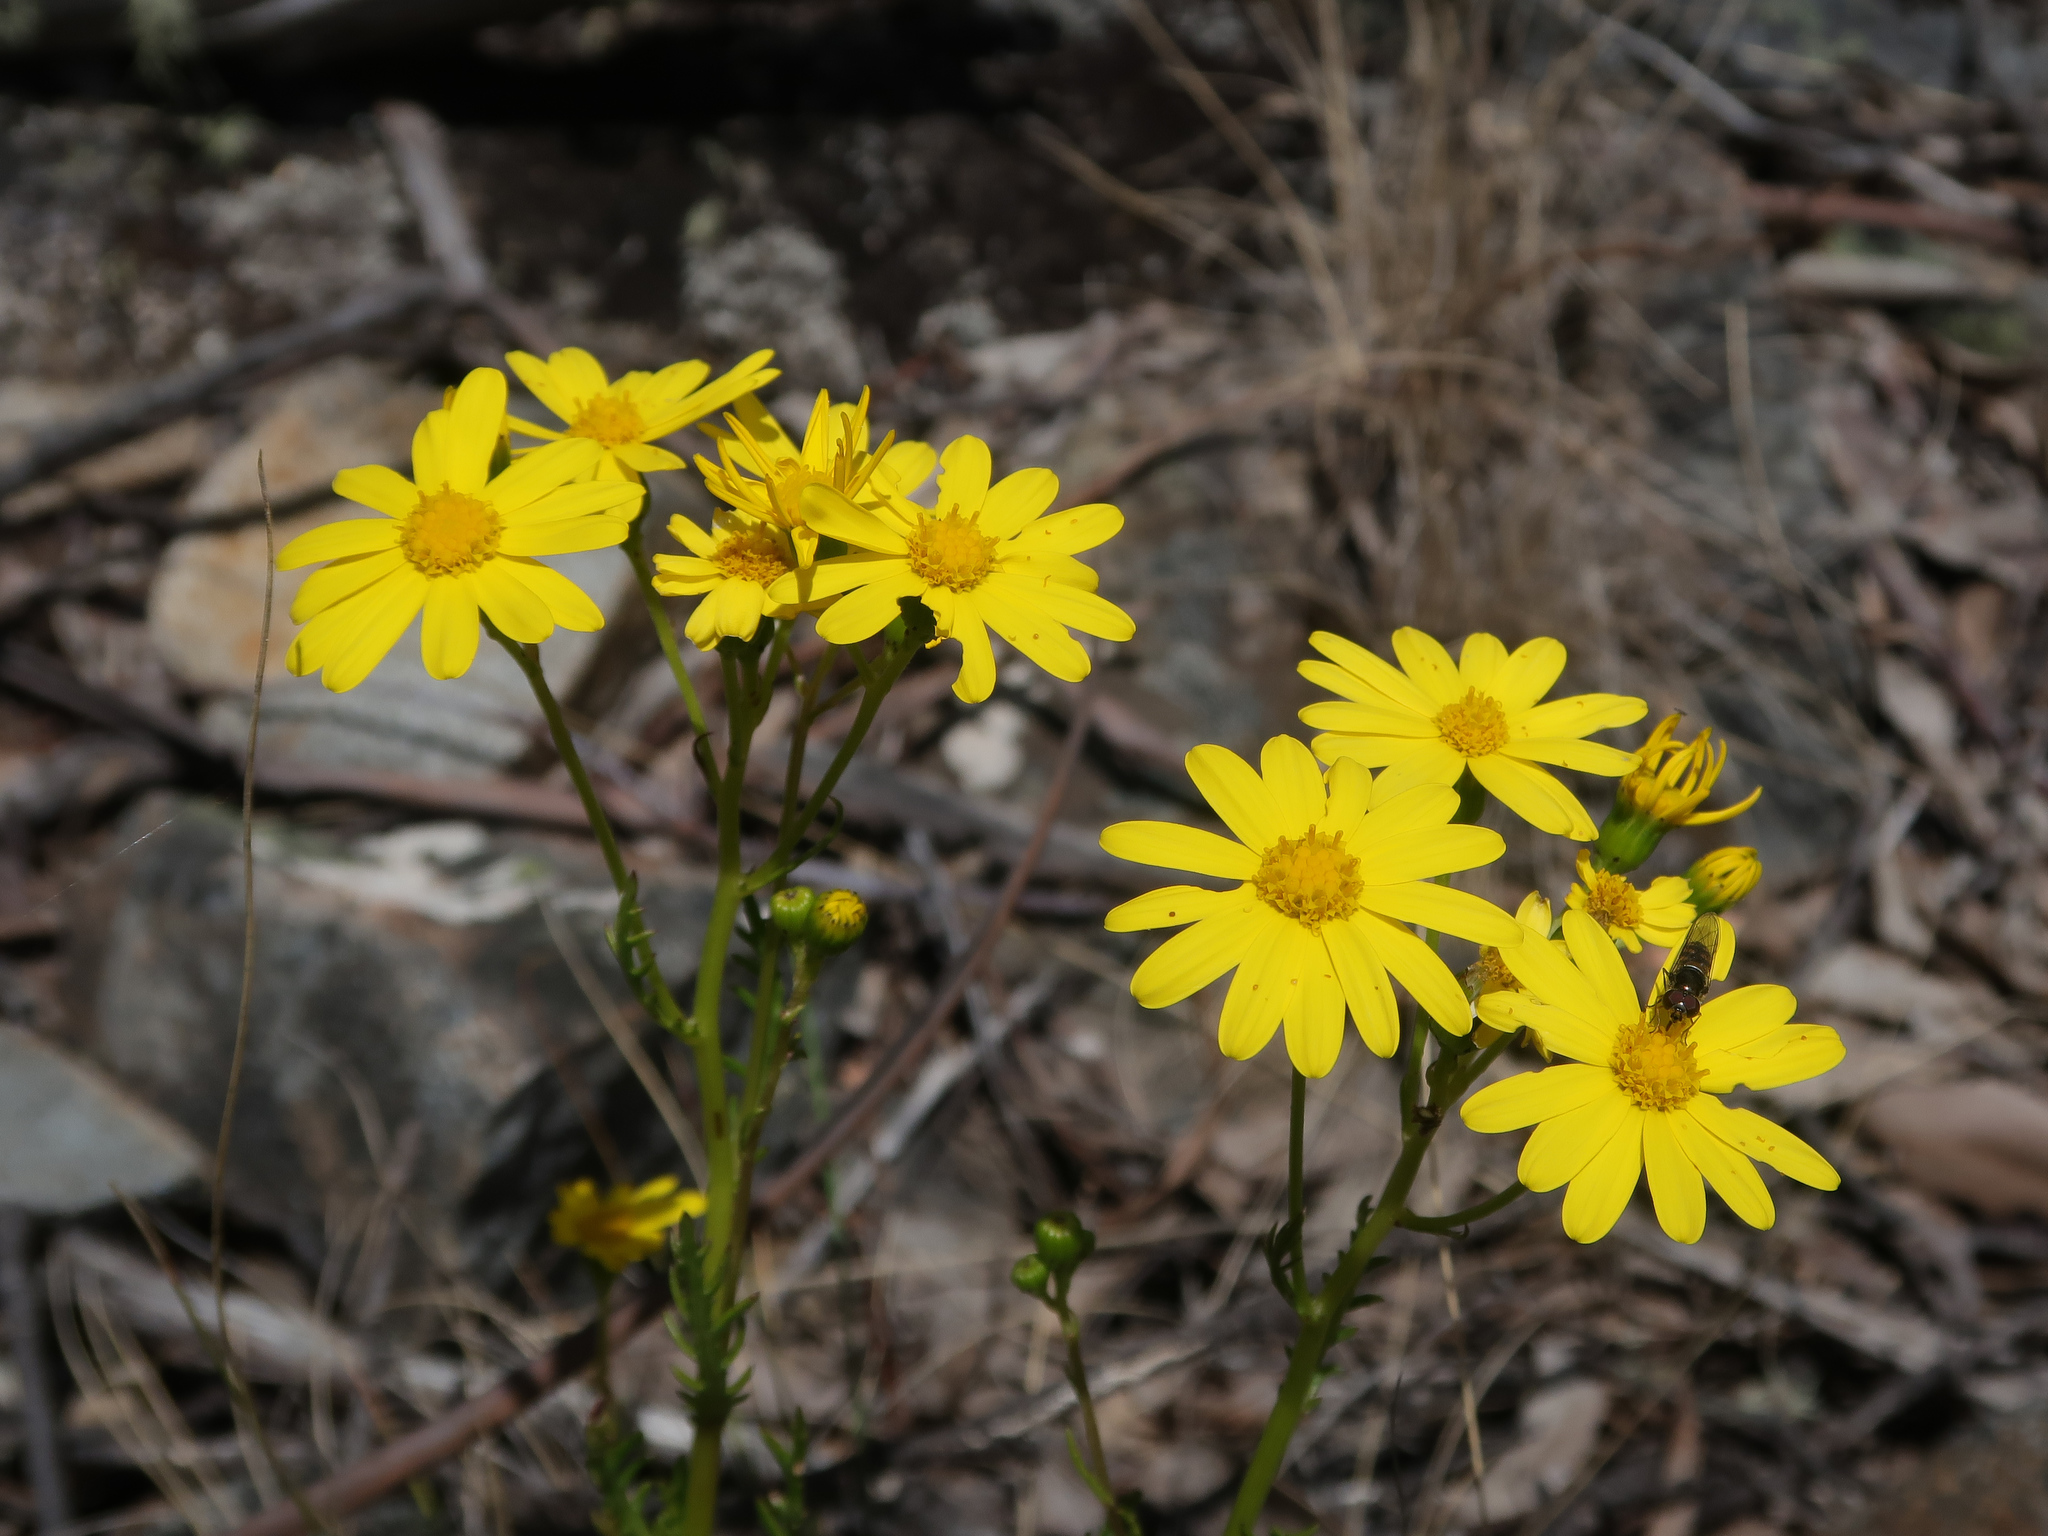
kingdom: Plantae
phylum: Tracheophyta
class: Magnoliopsida
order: Asterales
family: Asteraceae
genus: Senecio
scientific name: Senecio pinnatifolius
